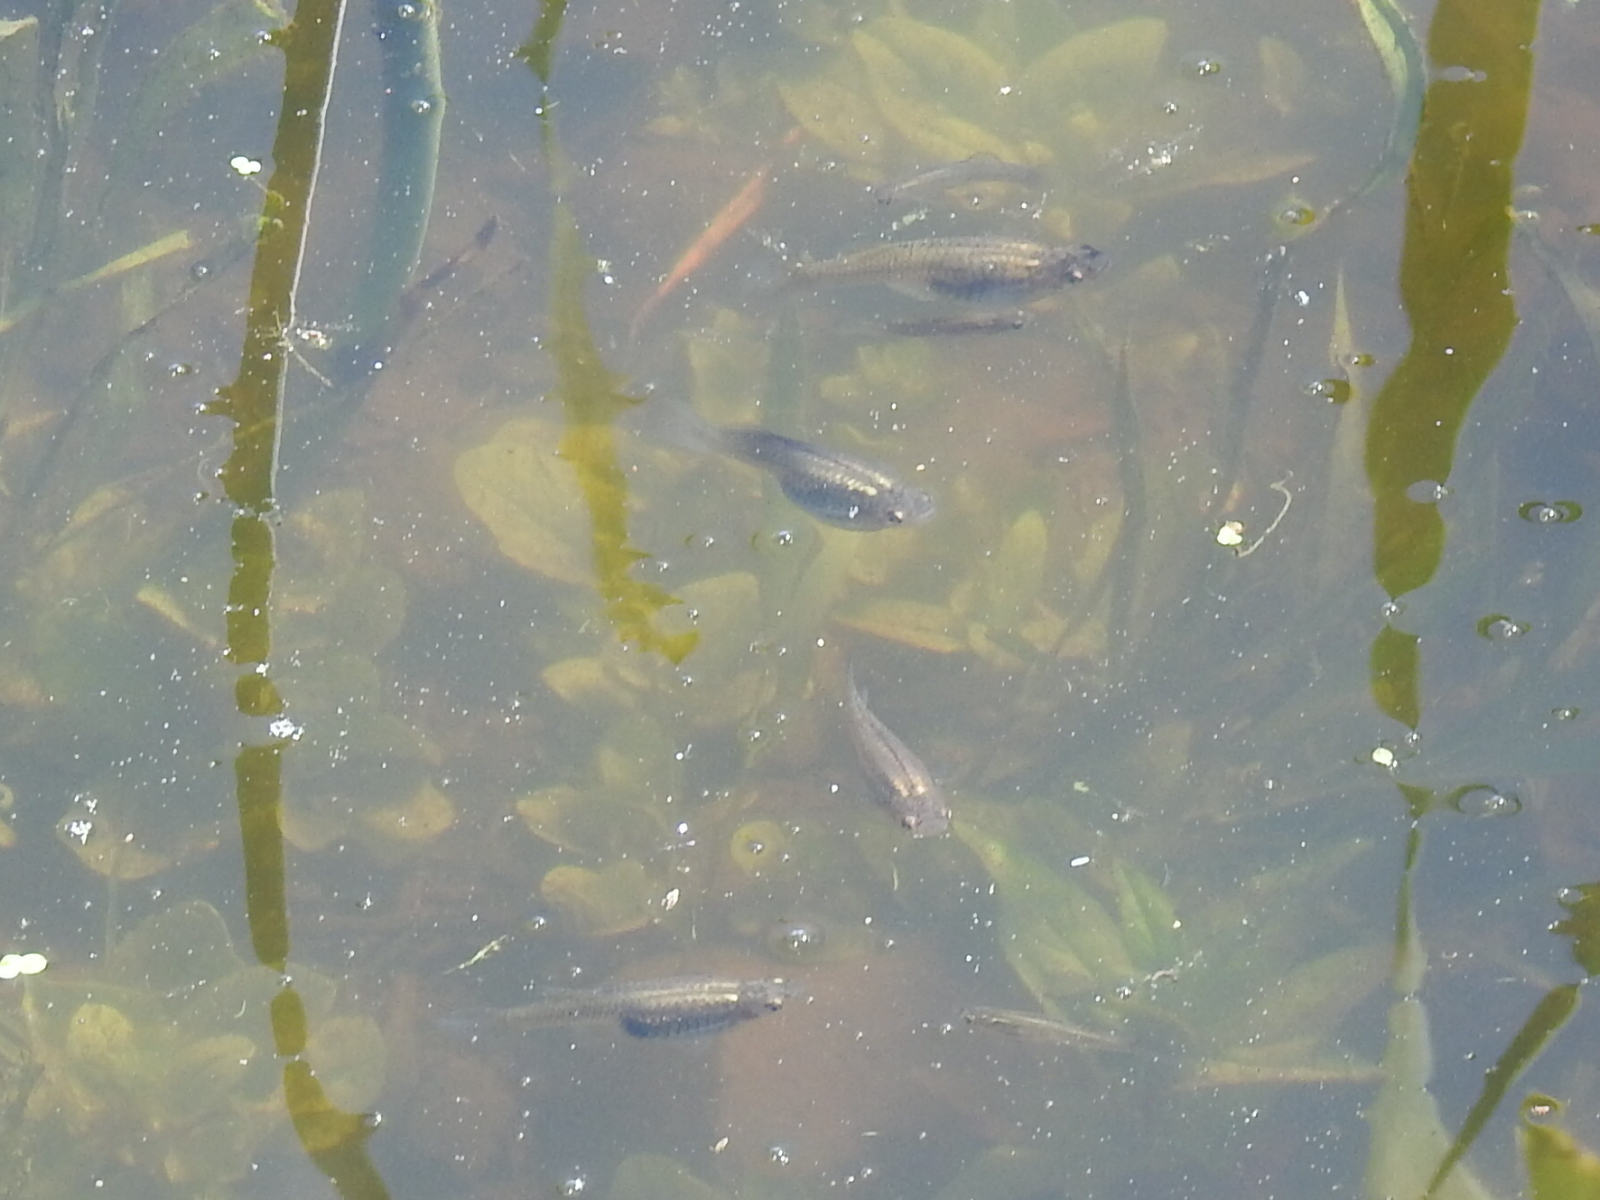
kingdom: Animalia
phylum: Chordata
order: Cyprinodontiformes
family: Poeciliidae
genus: Gambusia
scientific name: Gambusia affinis
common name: Mosquitofish
